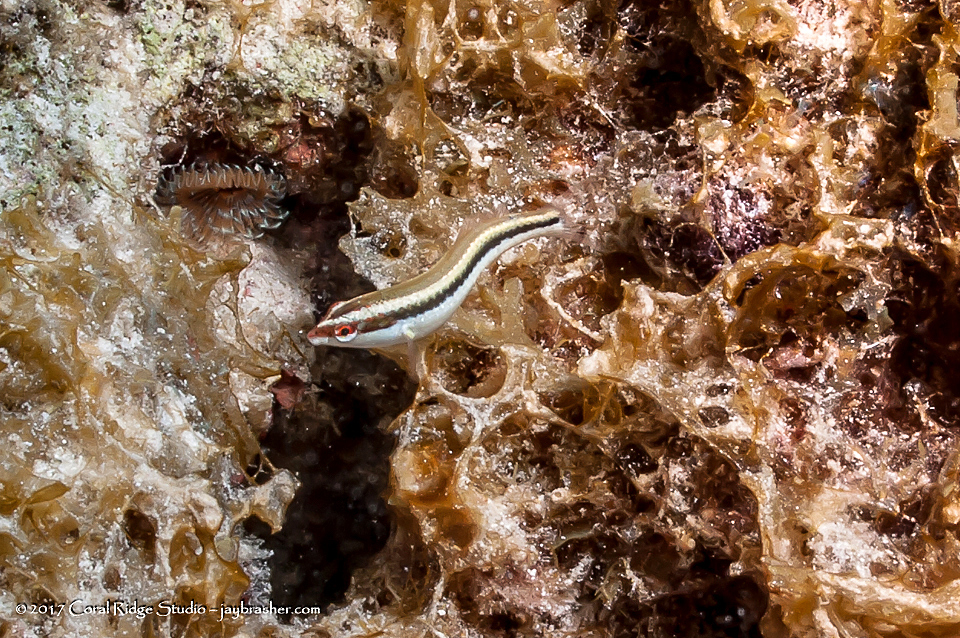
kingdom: Animalia
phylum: Chordata
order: Perciformes
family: Labridae
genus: Halichoeres
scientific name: Halichoeres maculipinna
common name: Clown wrasse
